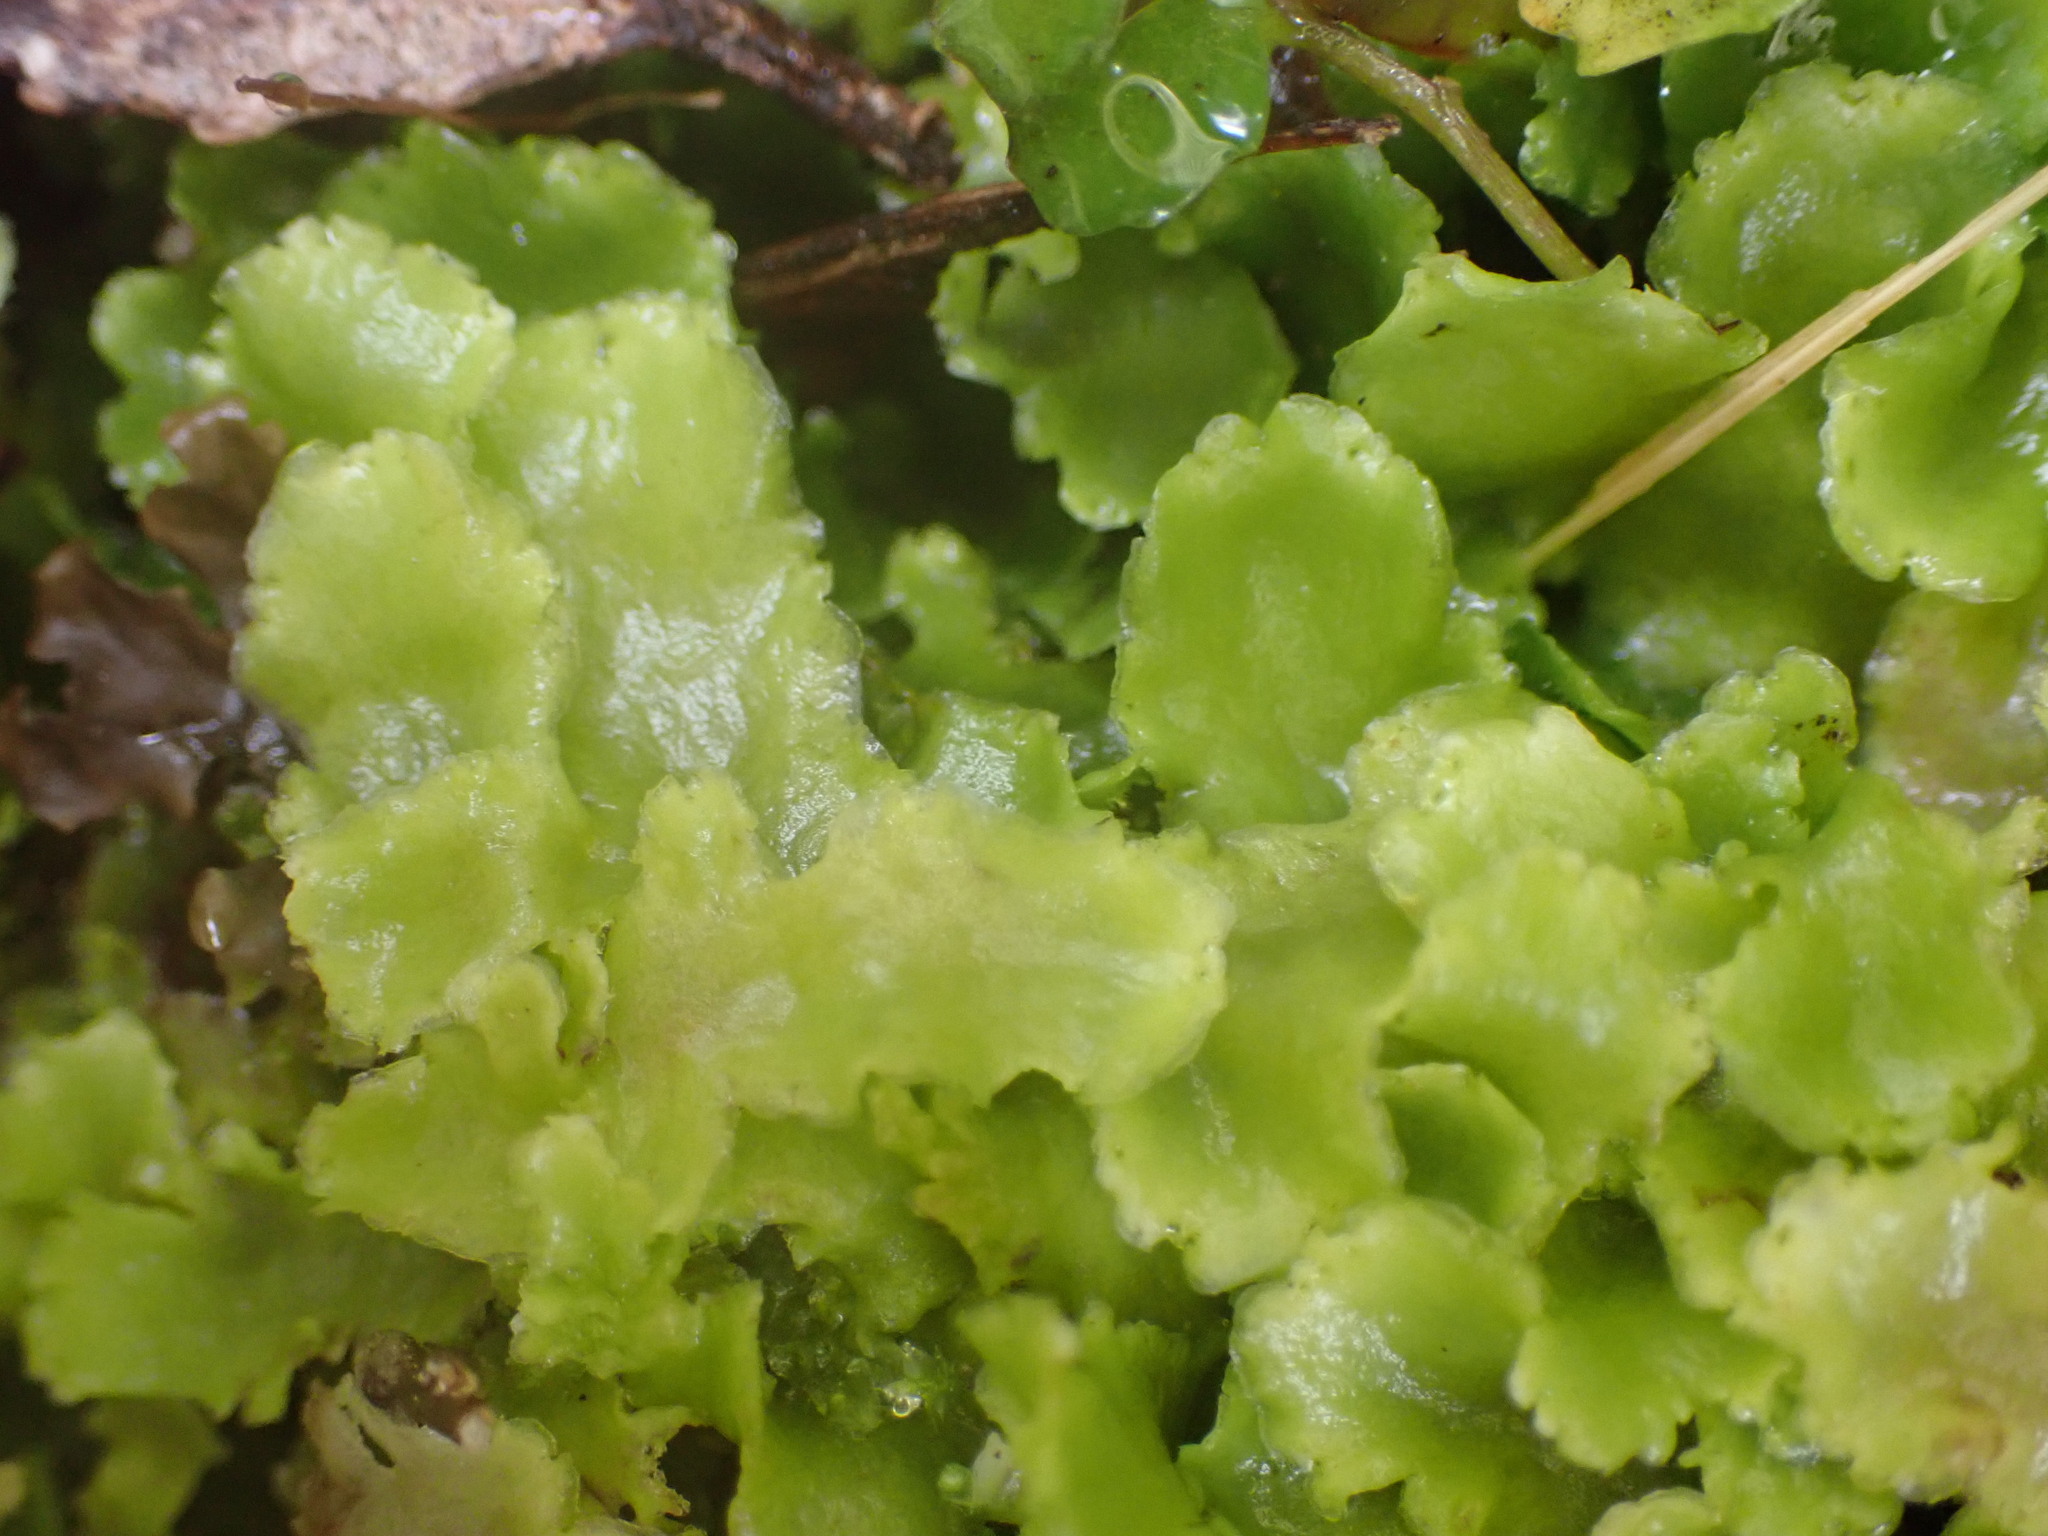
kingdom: Plantae
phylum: Marchantiophyta
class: Jungermanniopsida
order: Metzgeriales
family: Aneuraceae
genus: Lobatiriccardia
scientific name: Lobatiriccardia alterniloba
